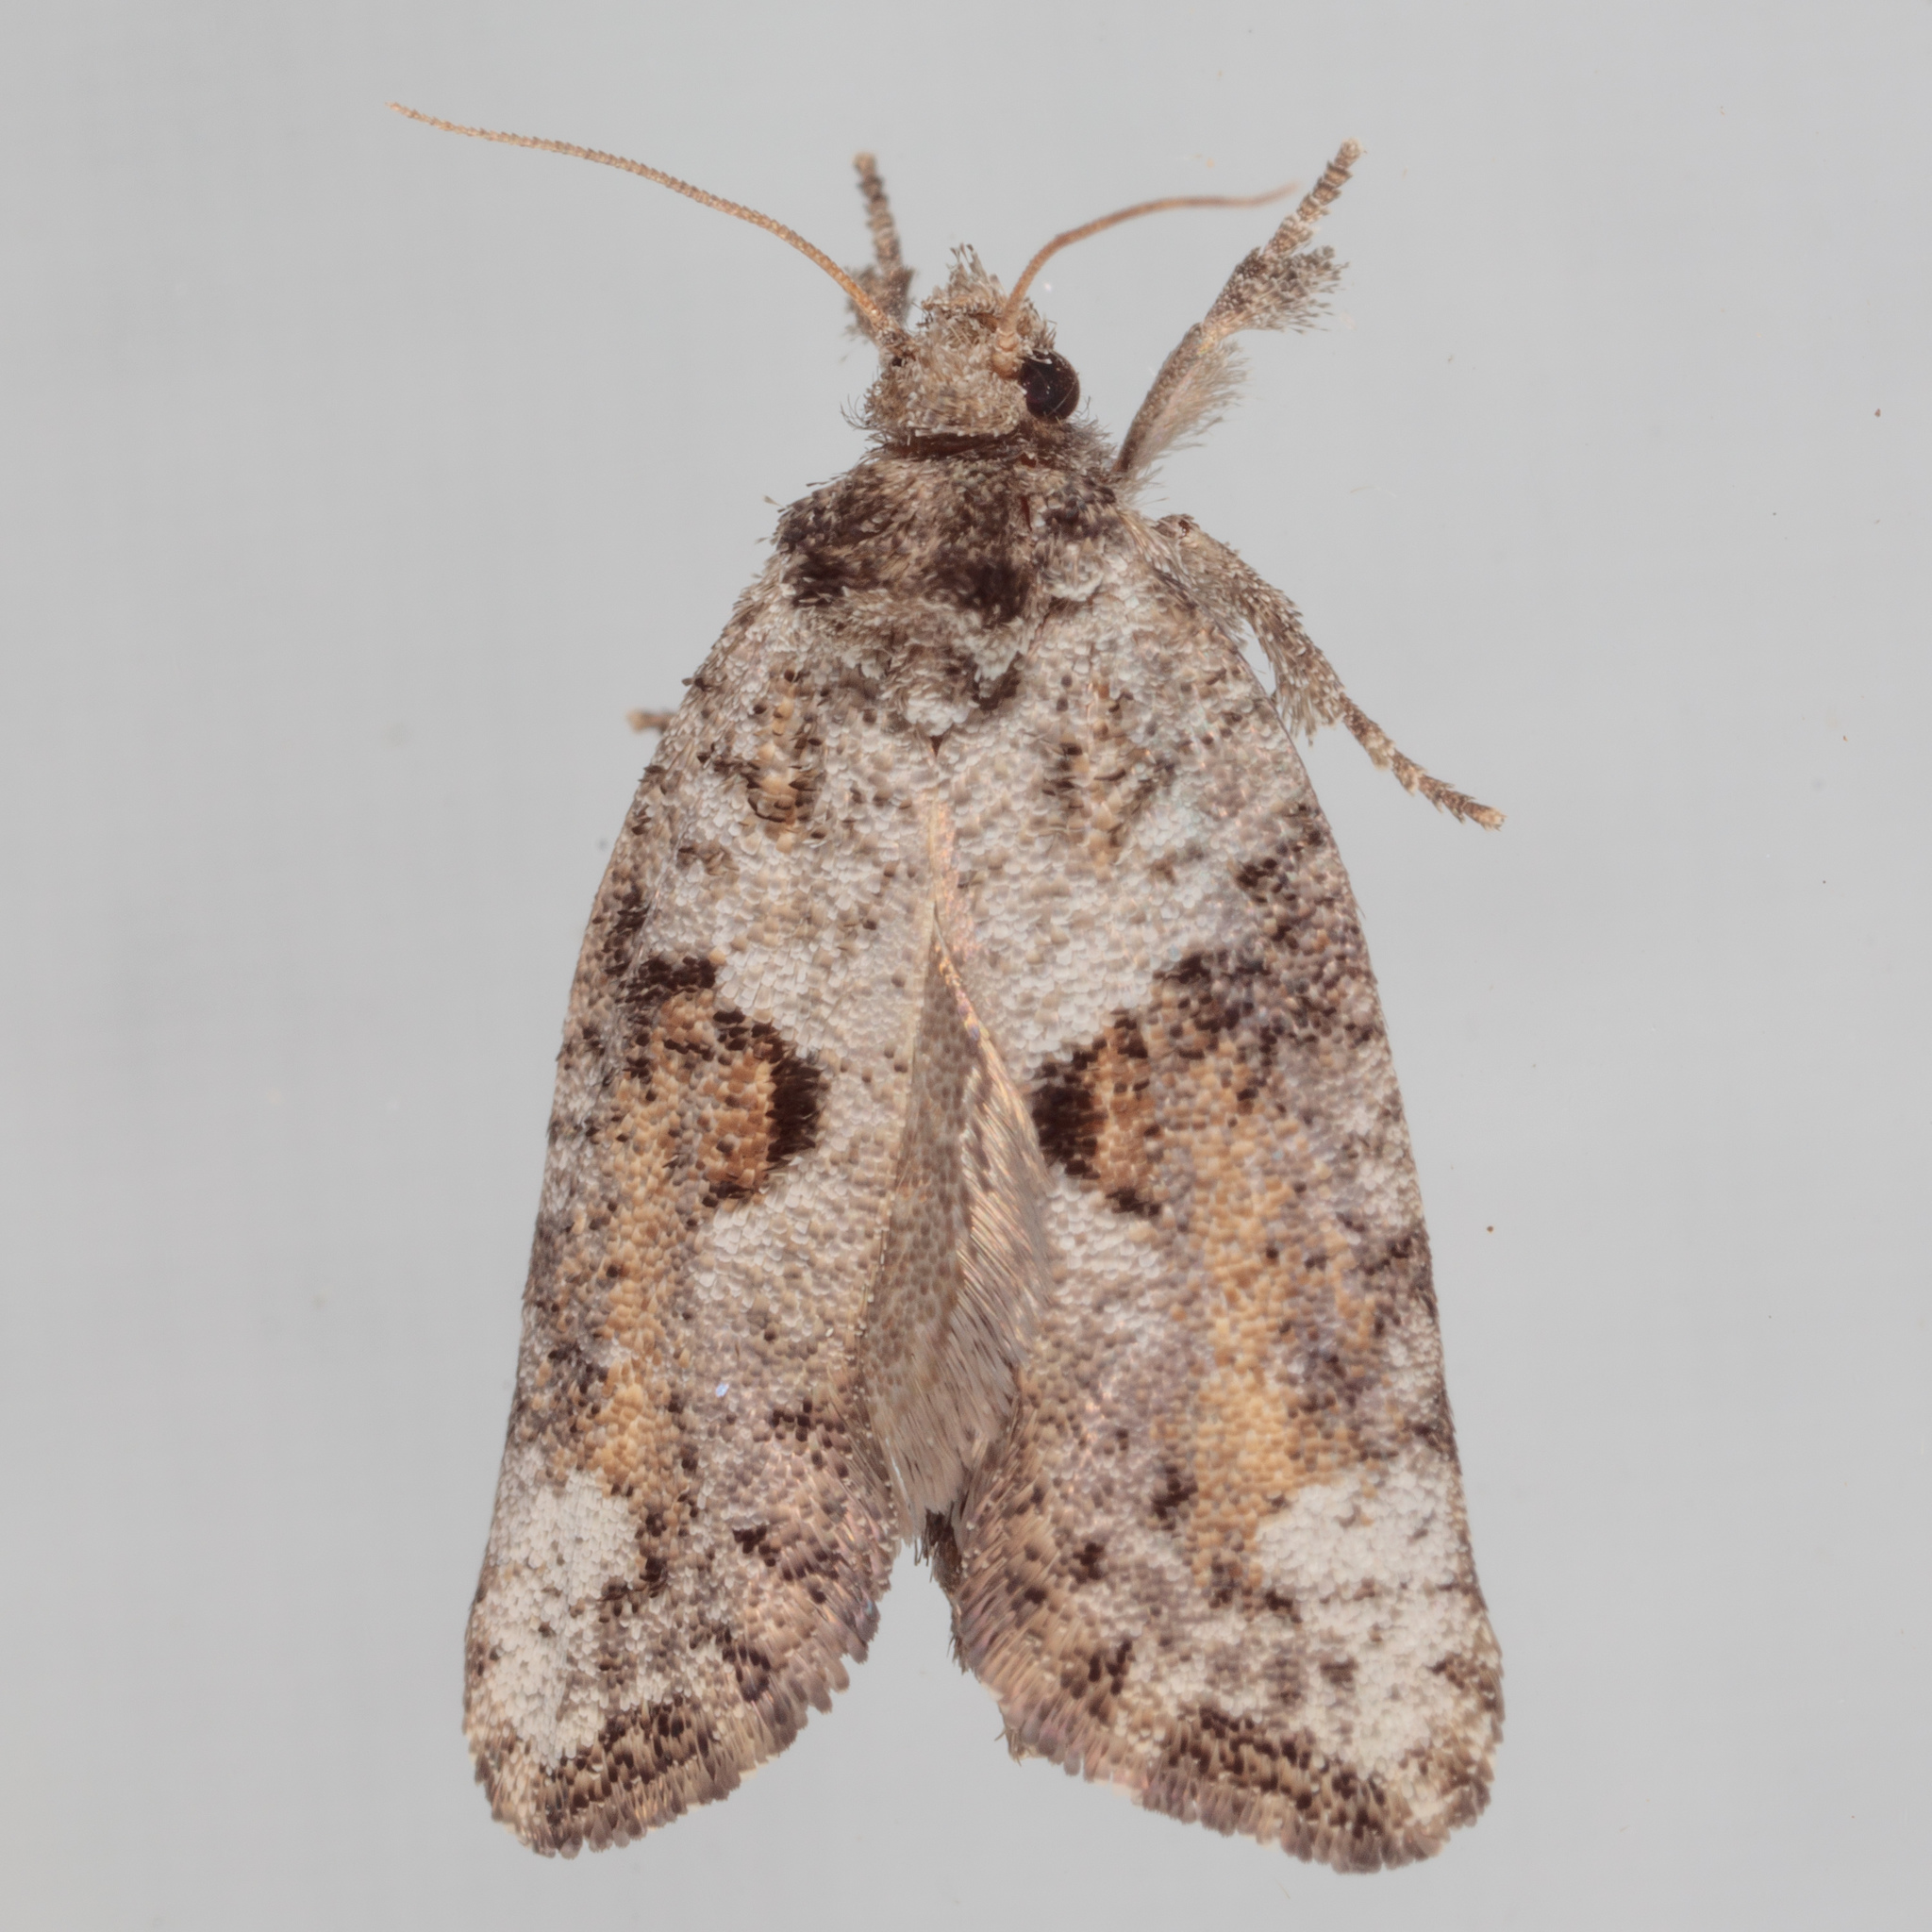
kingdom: Animalia
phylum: Arthropoda
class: Insecta
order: Lepidoptera
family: Tineidae
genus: Acrolophus
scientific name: Acrolophus piger
